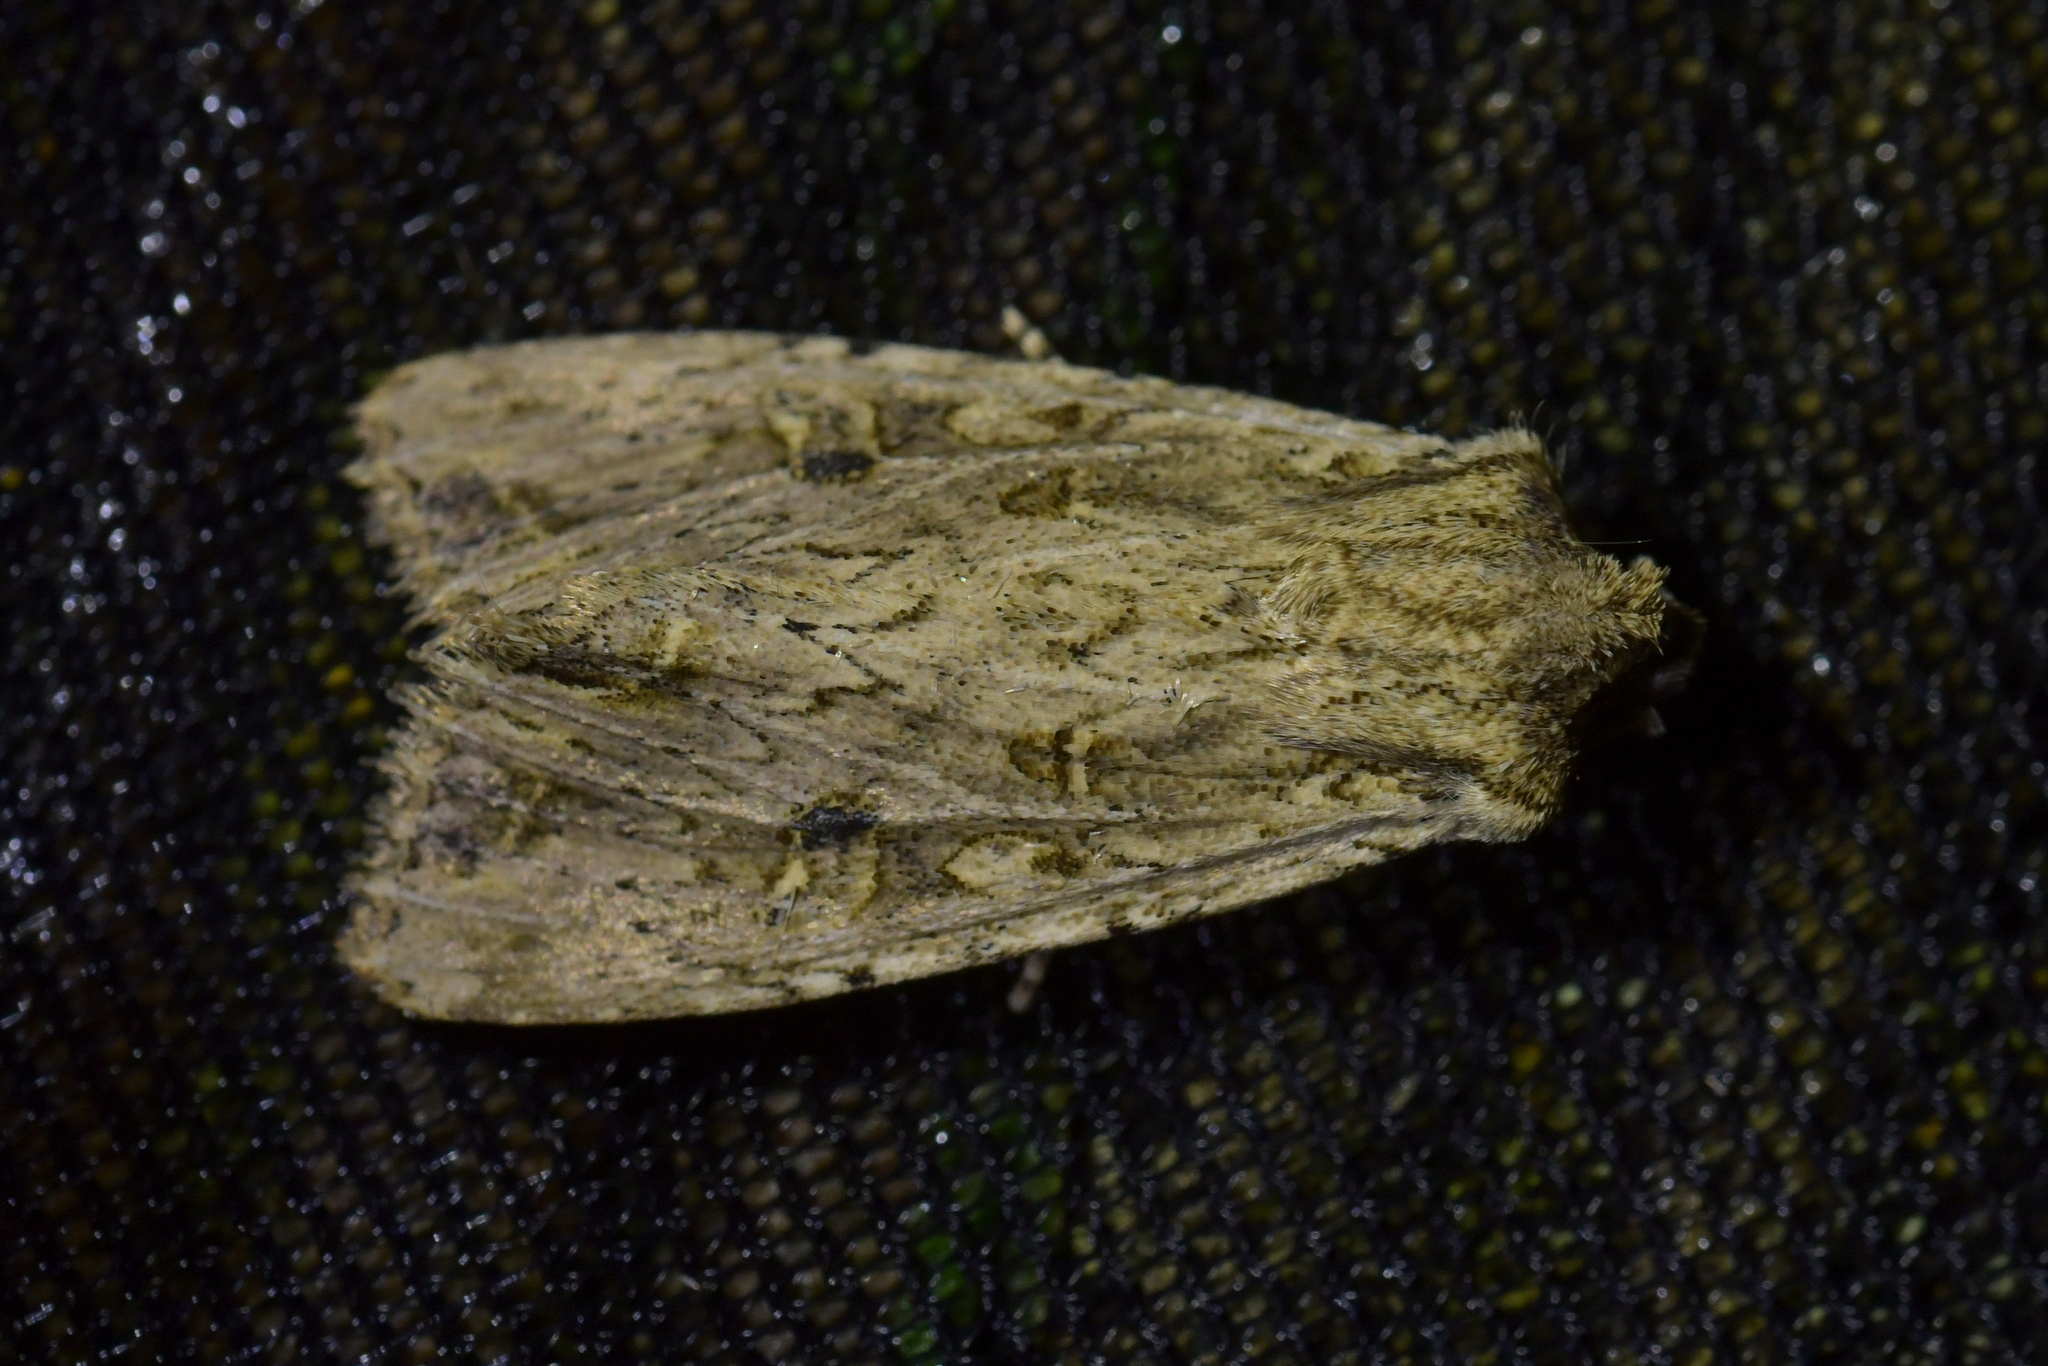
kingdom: Animalia
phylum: Arthropoda
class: Insecta
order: Lepidoptera
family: Noctuidae
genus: Ichneutica
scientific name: Ichneutica lignana
